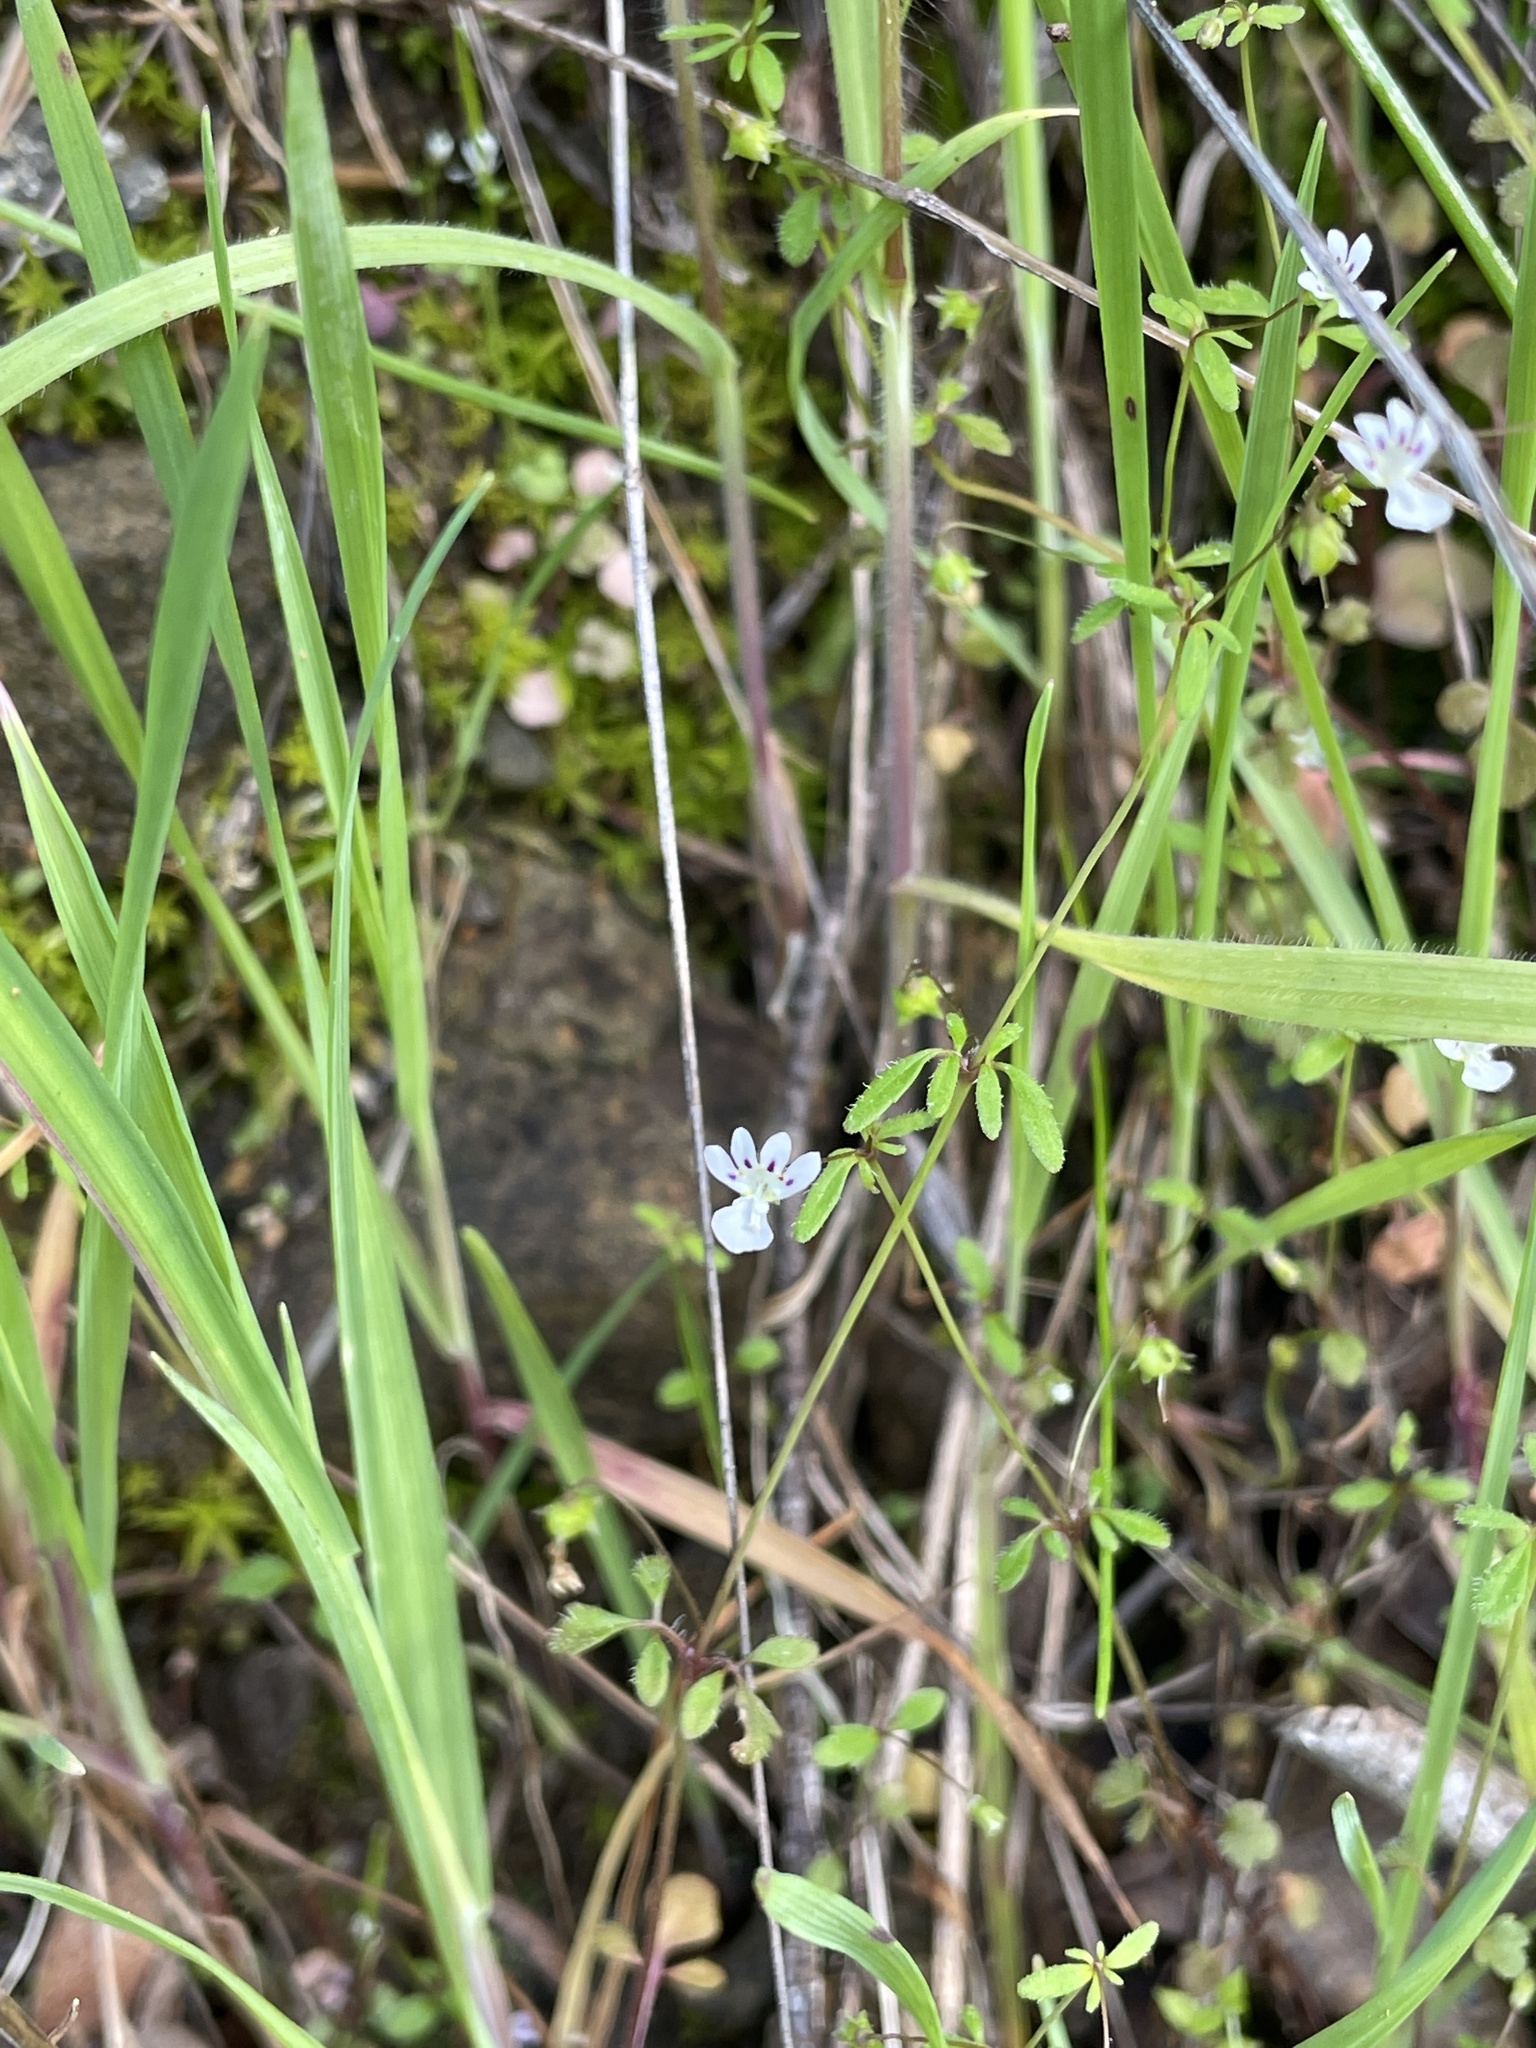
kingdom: Plantae
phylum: Tracheophyta
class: Magnoliopsida
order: Lamiales
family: Plantaginaceae
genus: Tonella
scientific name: Tonella tenella
